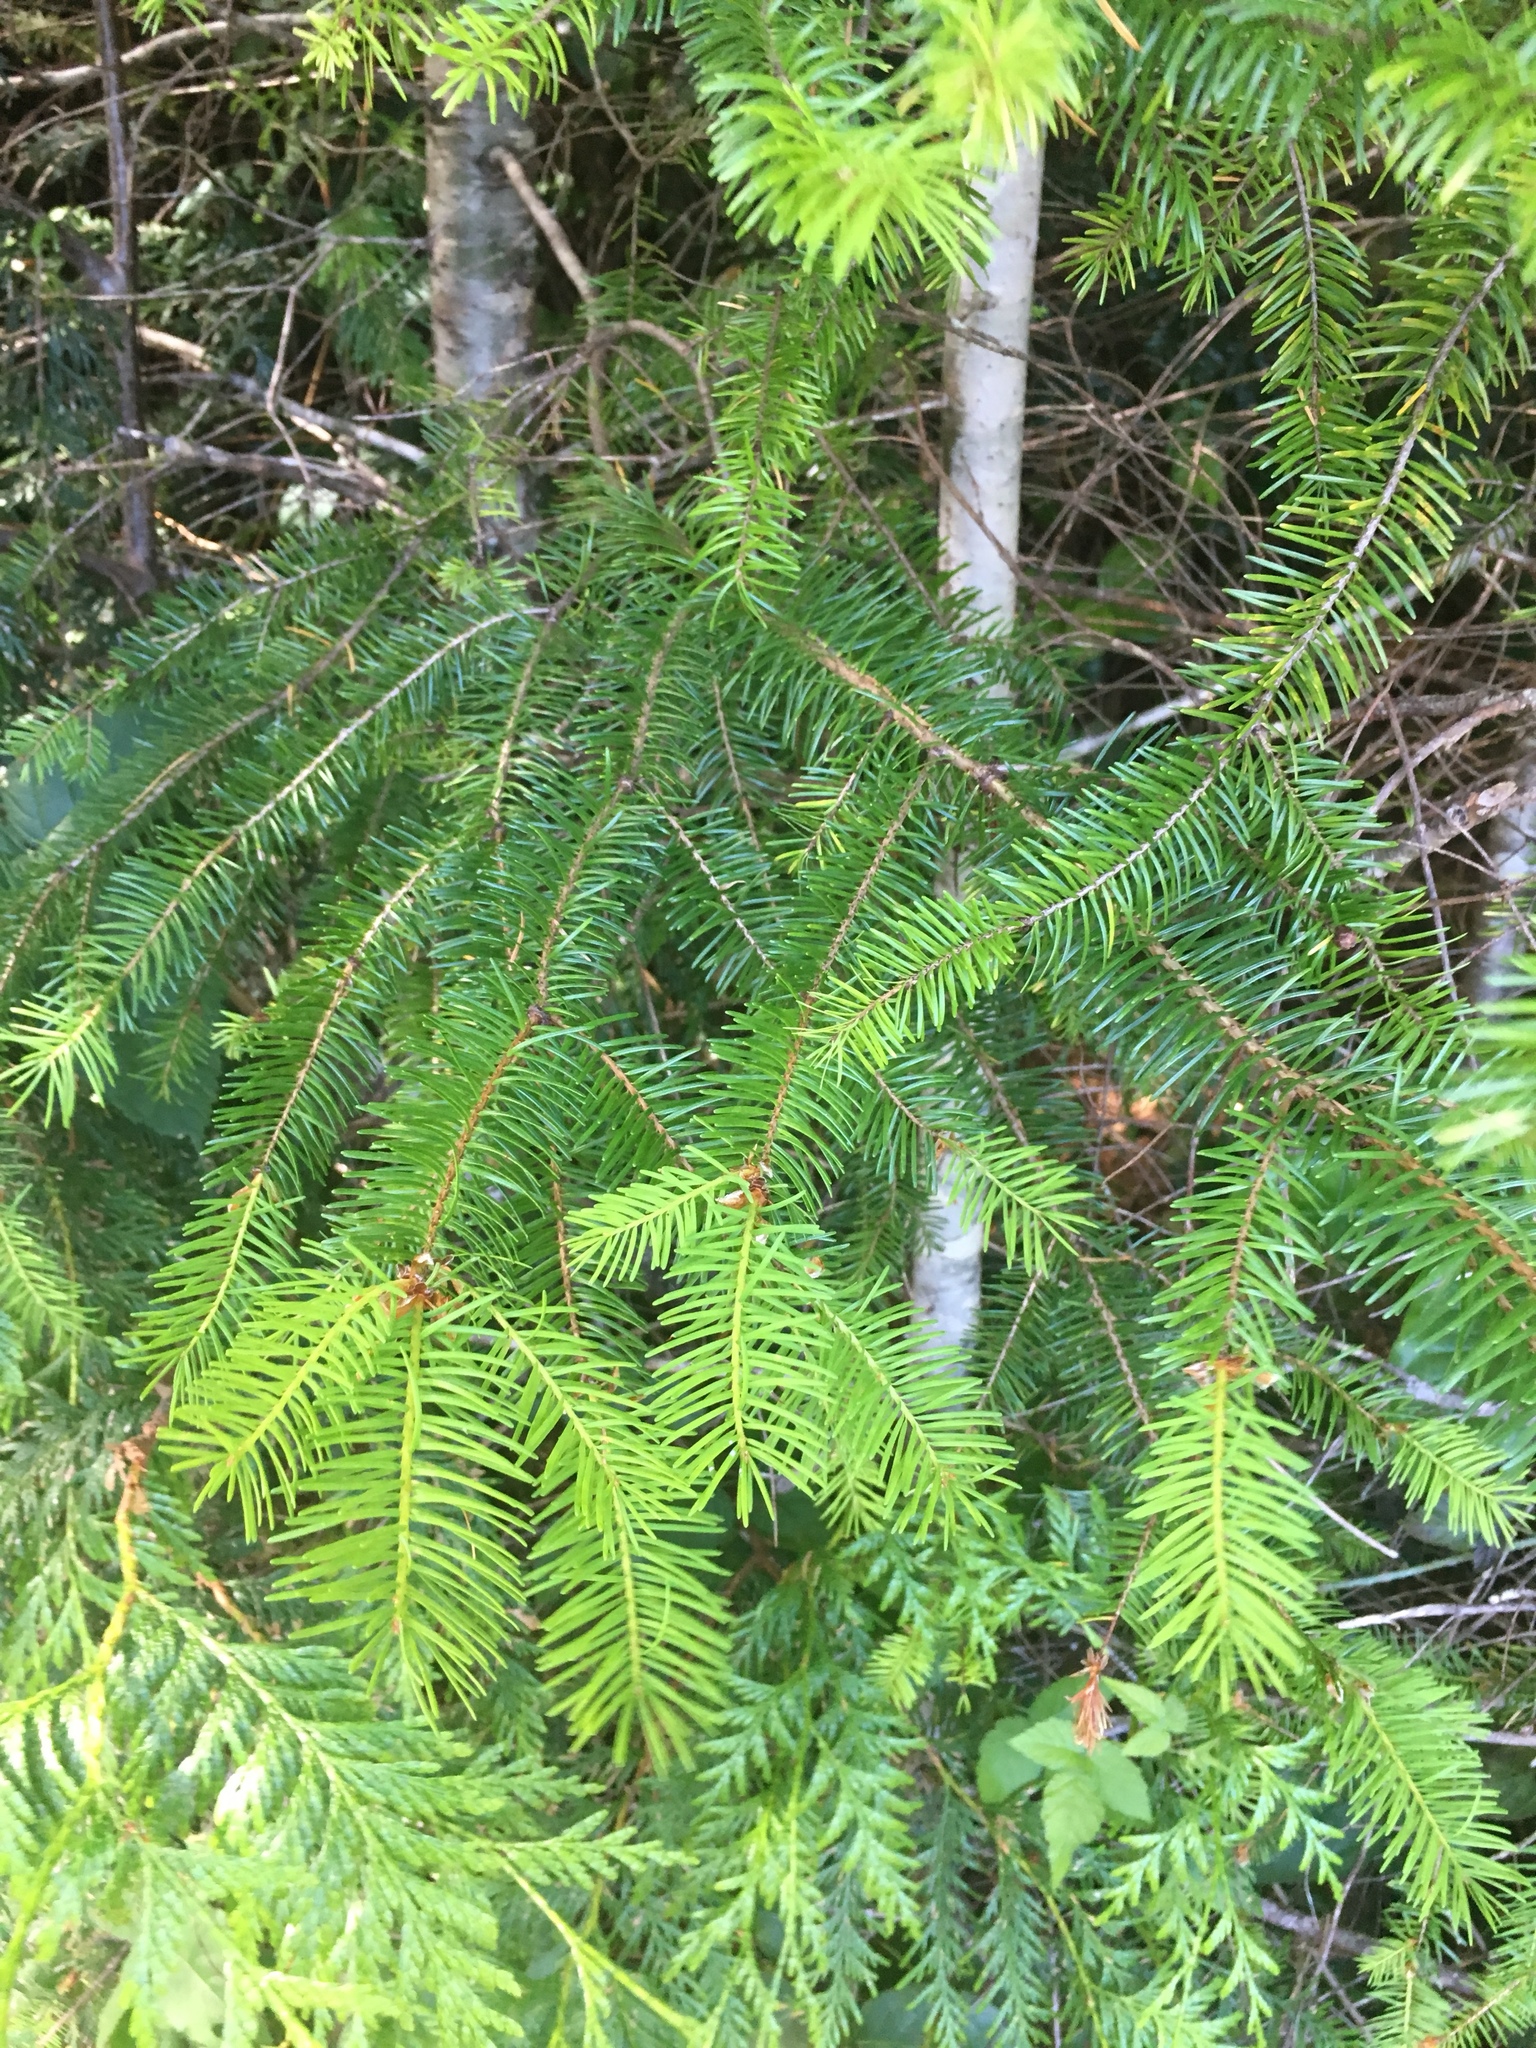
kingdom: Plantae
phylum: Tracheophyta
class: Pinopsida
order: Pinales
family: Pinaceae
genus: Pseudotsuga
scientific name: Pseudotsuga menziesii
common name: Douglas fir
